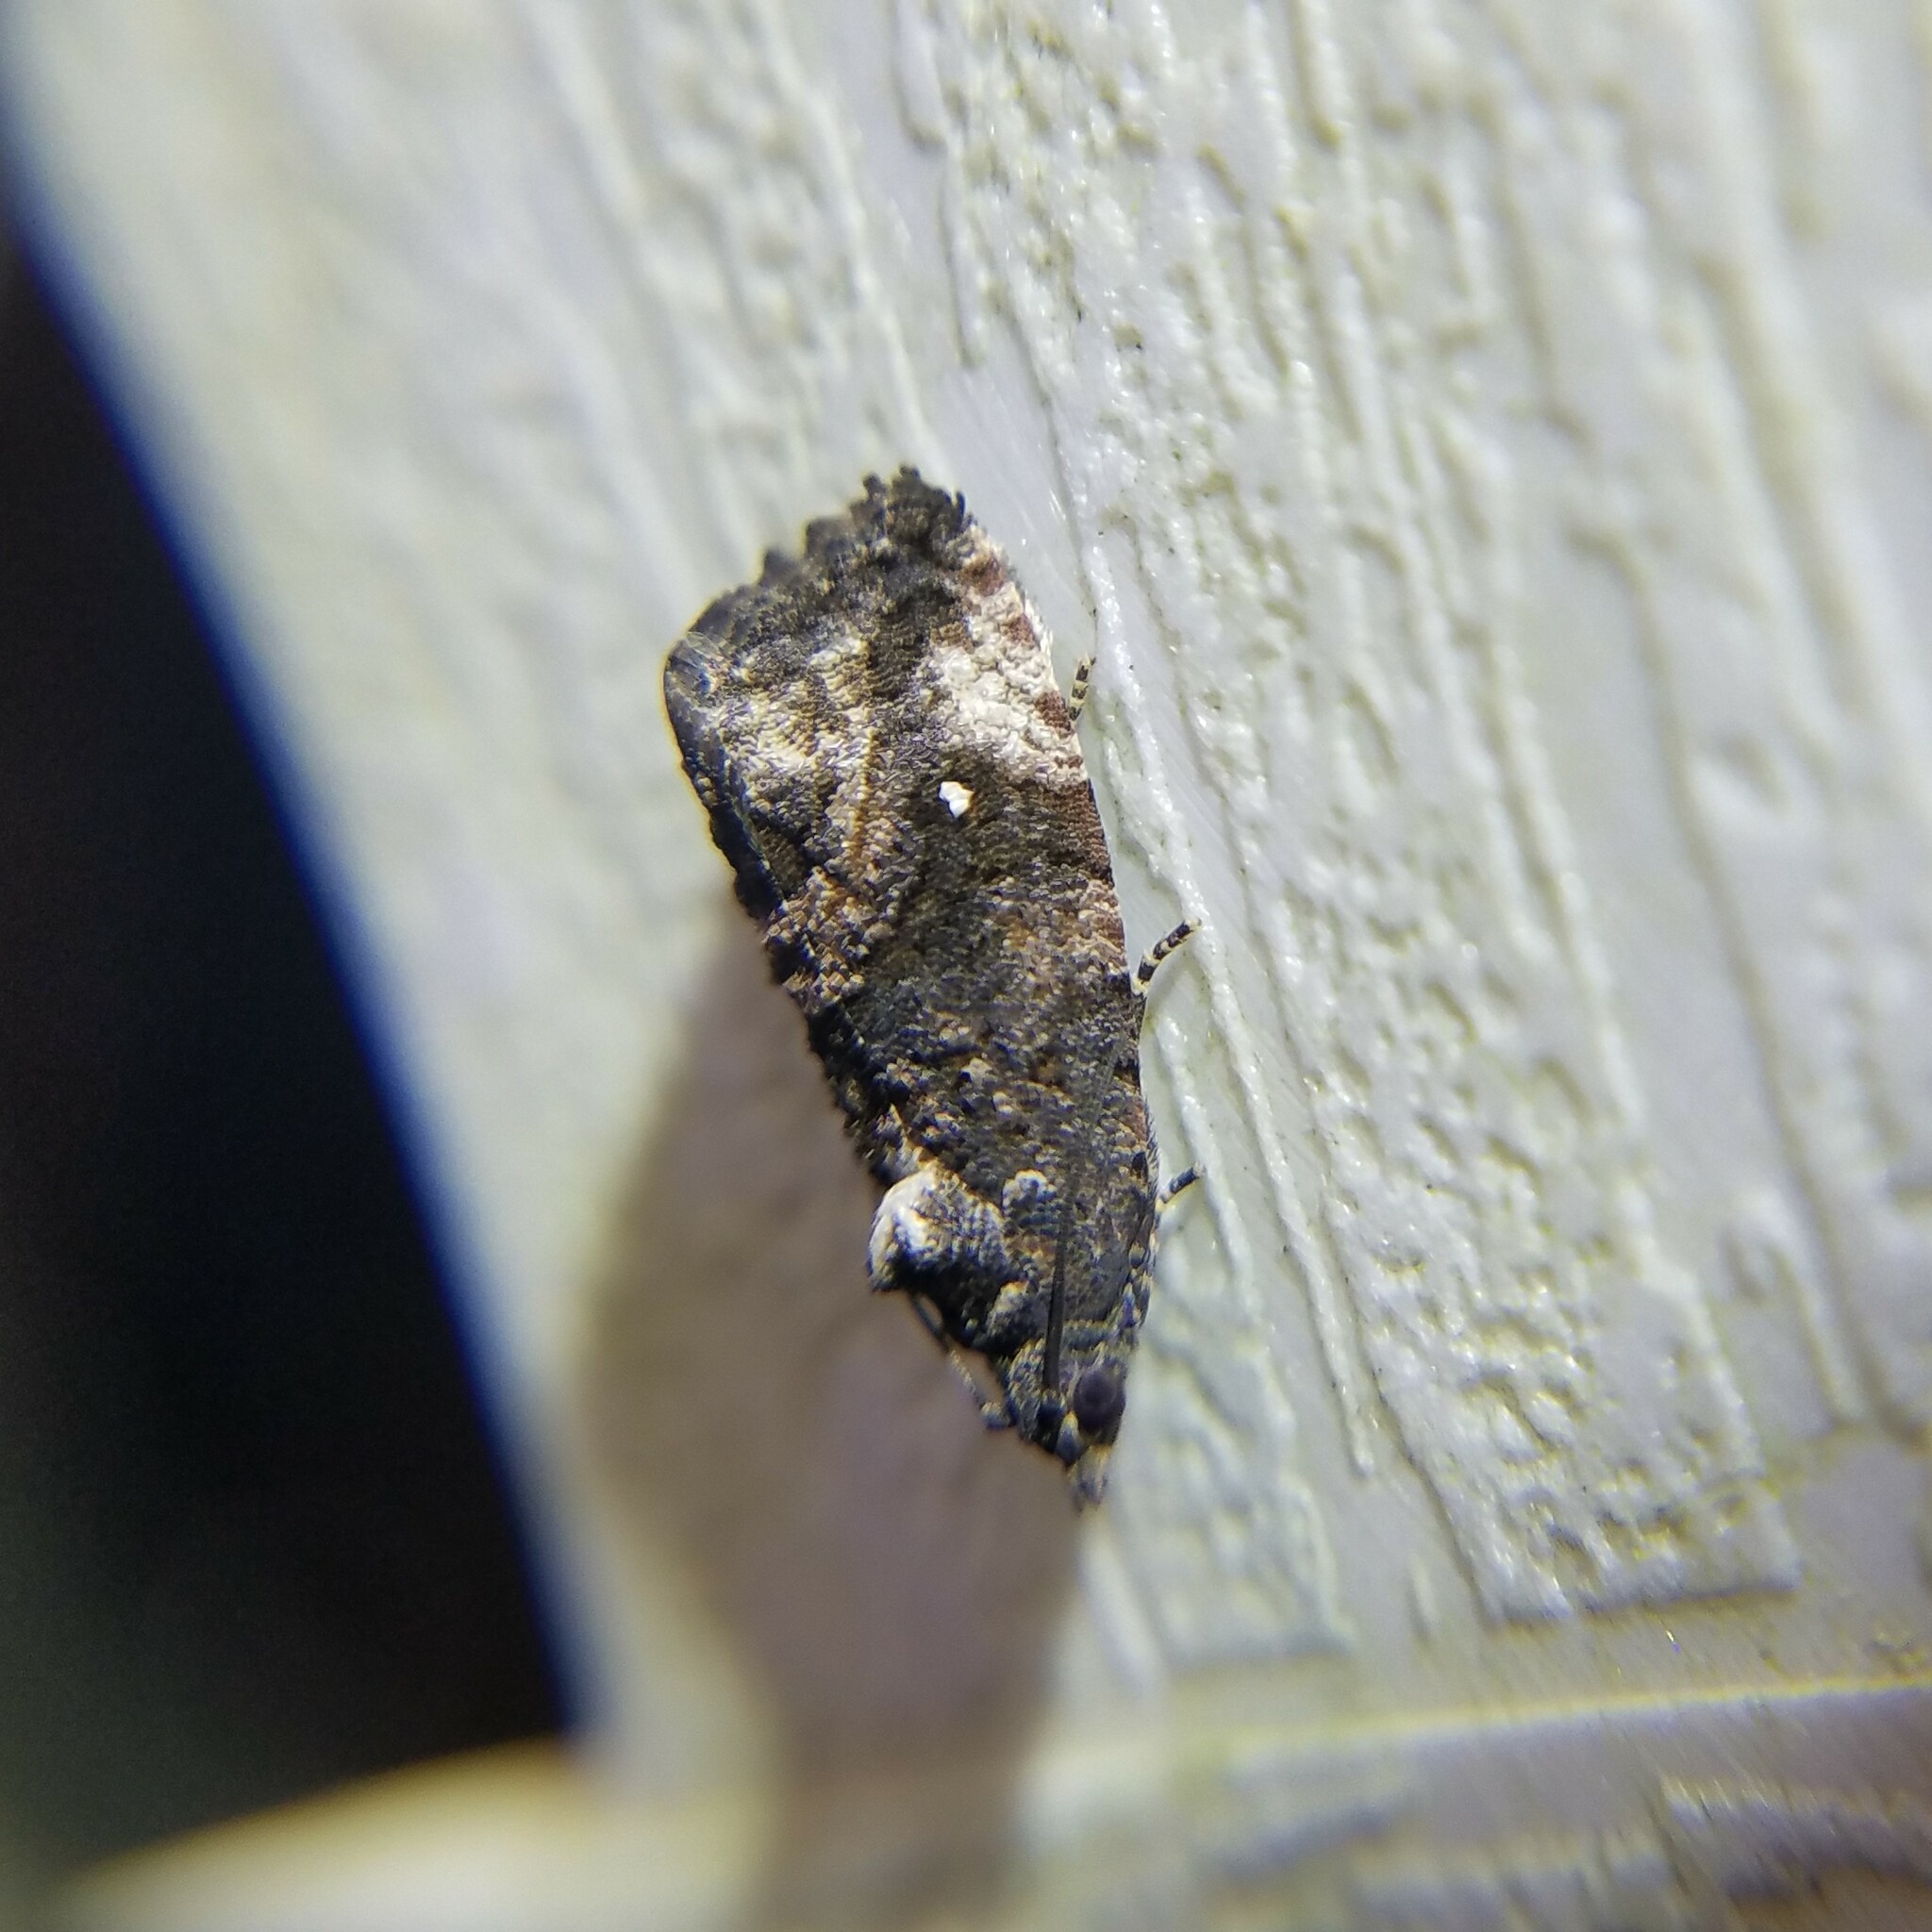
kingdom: Animalia
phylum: Arthropoda
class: Insecta
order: Lepidoptera
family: Tortricidae
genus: Gymnandrosoma
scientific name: Gymnandrosoma punctidiscanum
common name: Dotted ecdytolopha moth
